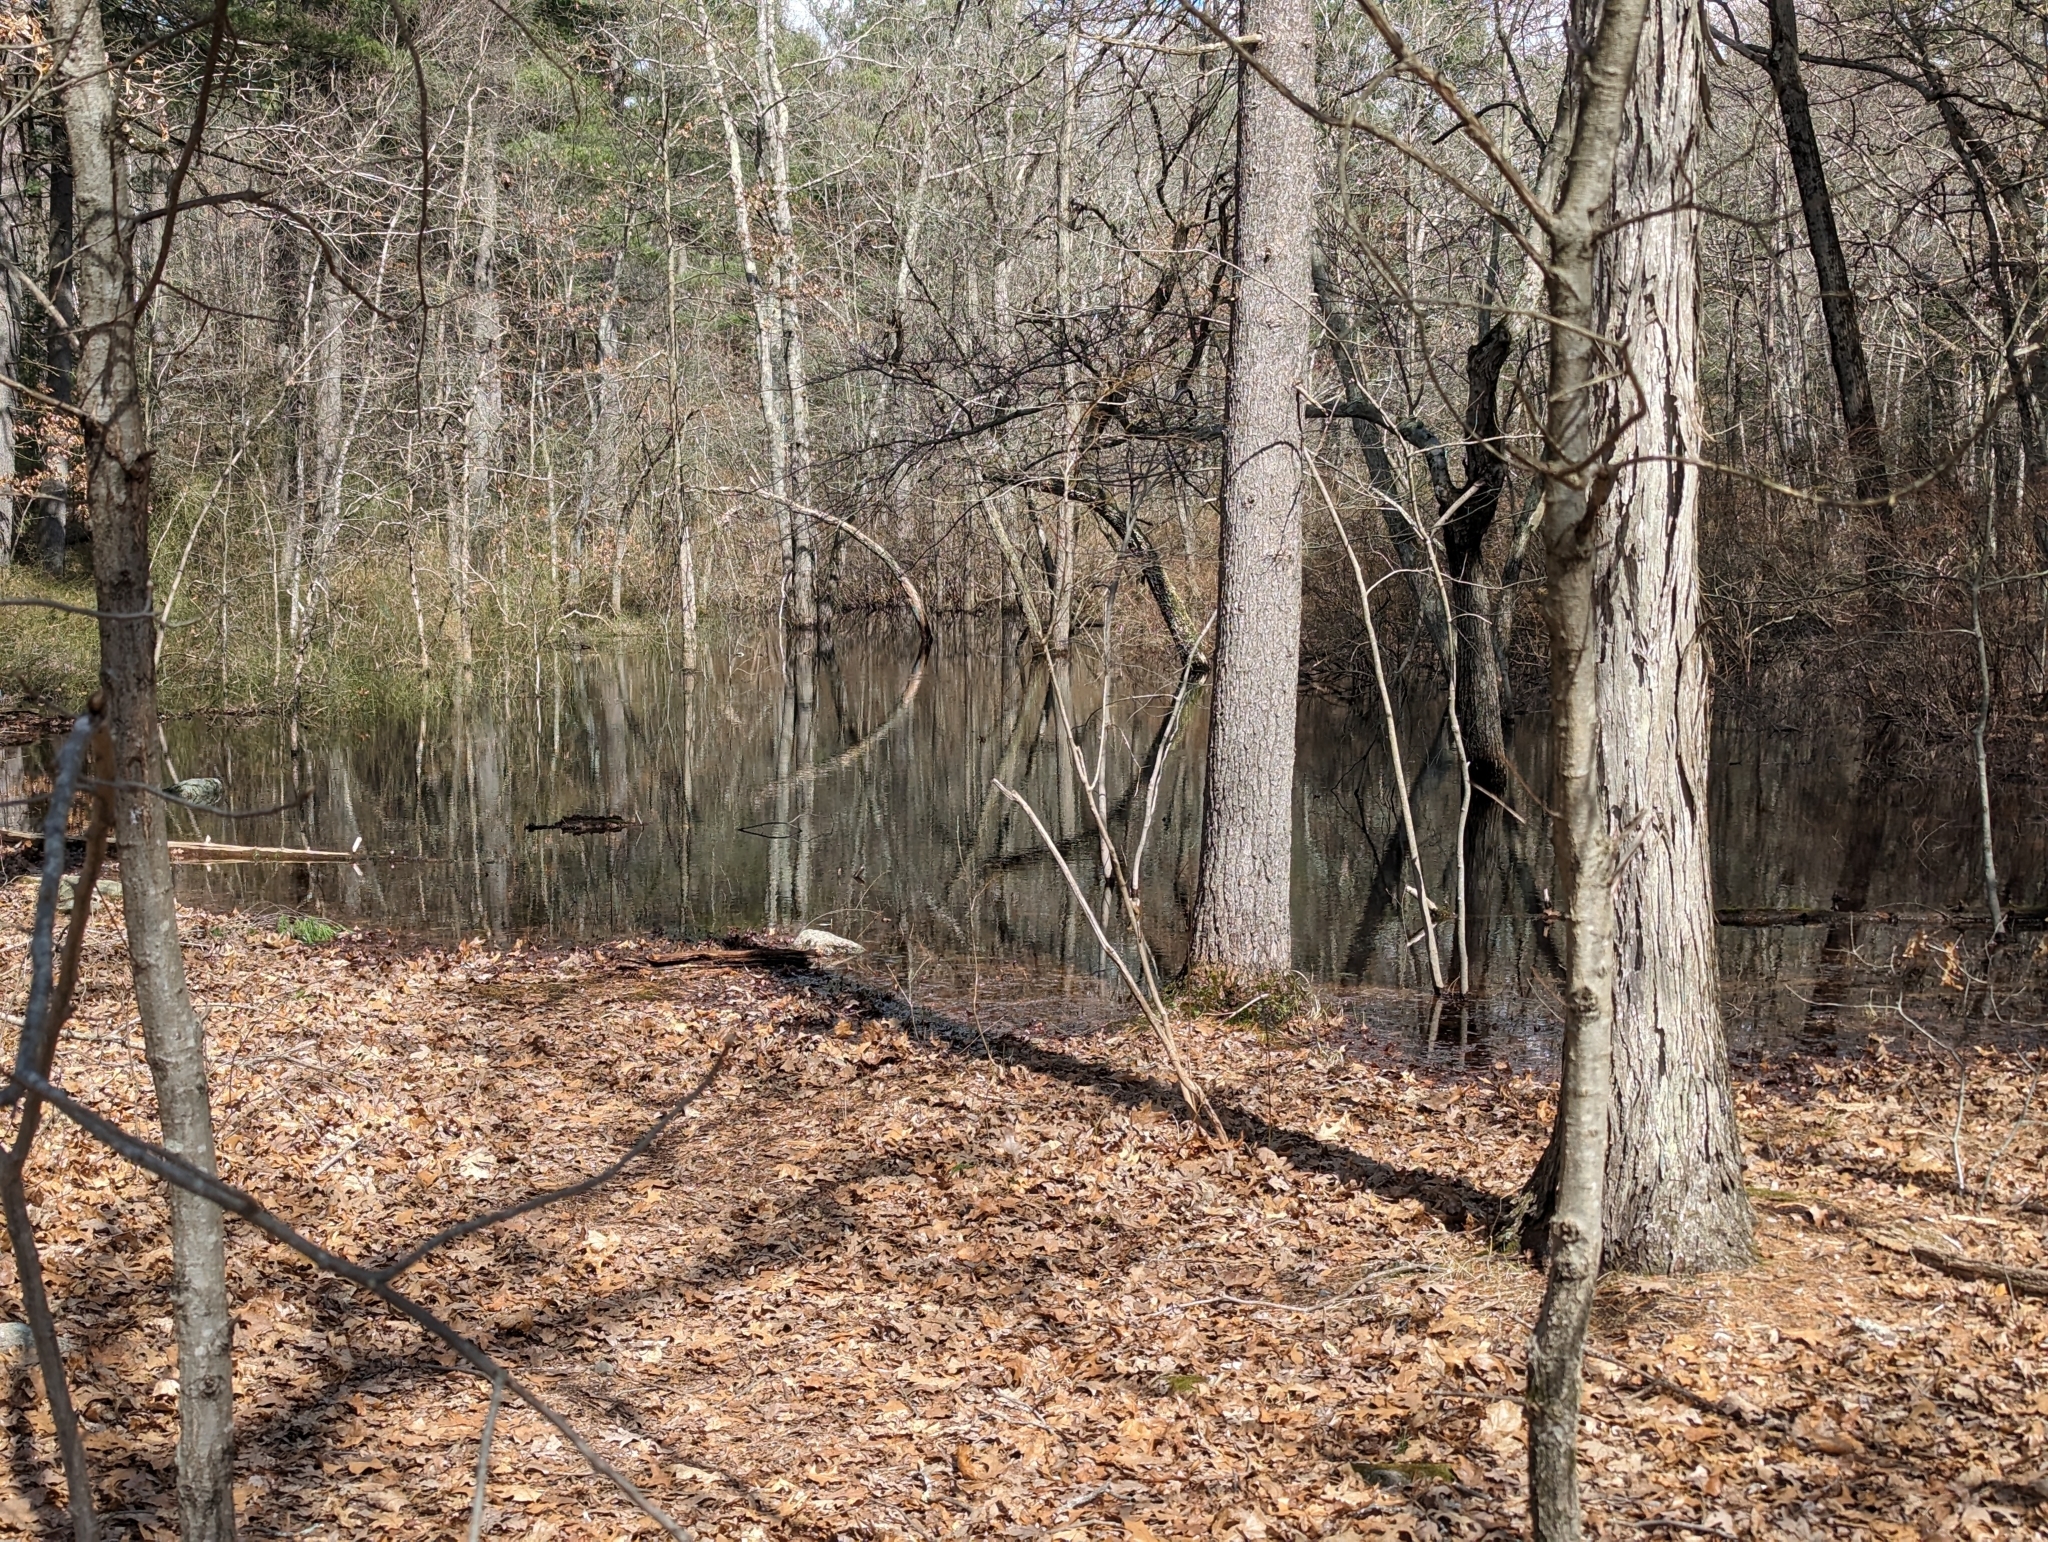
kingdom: Animalia
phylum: Chordata
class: Amphibia
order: Anura
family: Ranidae
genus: Lithobates
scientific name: Lithobates sylvaticus
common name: Wood frog
